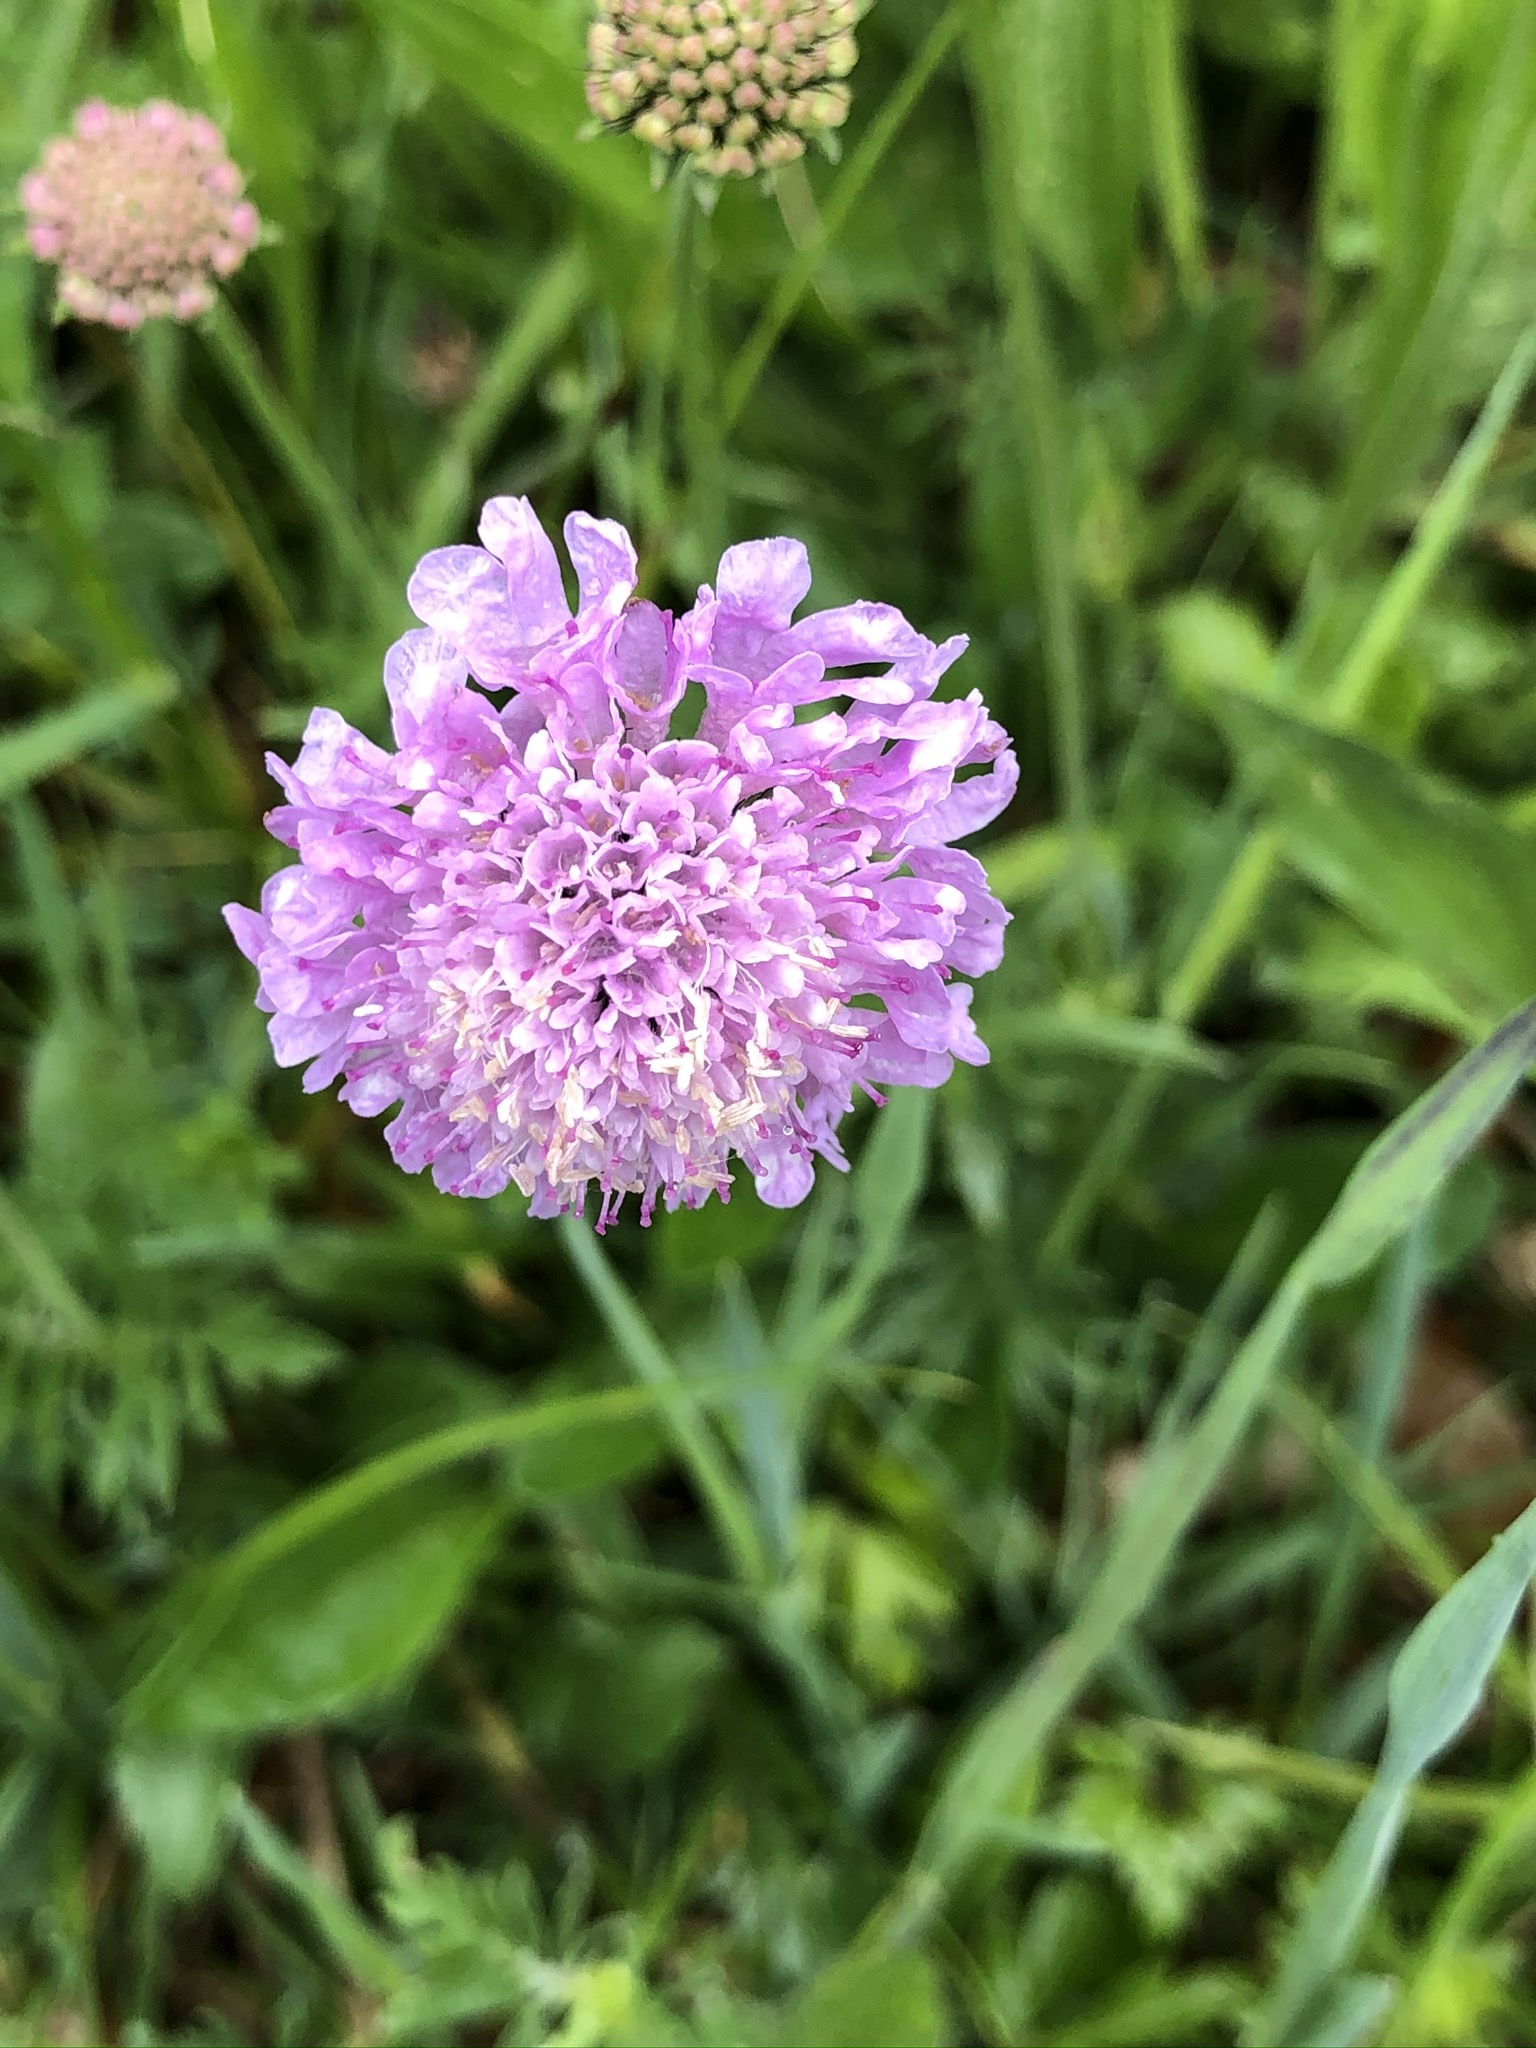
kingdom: Plantae
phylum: Tracheophyta
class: Magnoliopsida
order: Dipsacales
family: Caprifoliaceae
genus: Knautia
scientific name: Knautia arvensis
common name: Field scabiosa
